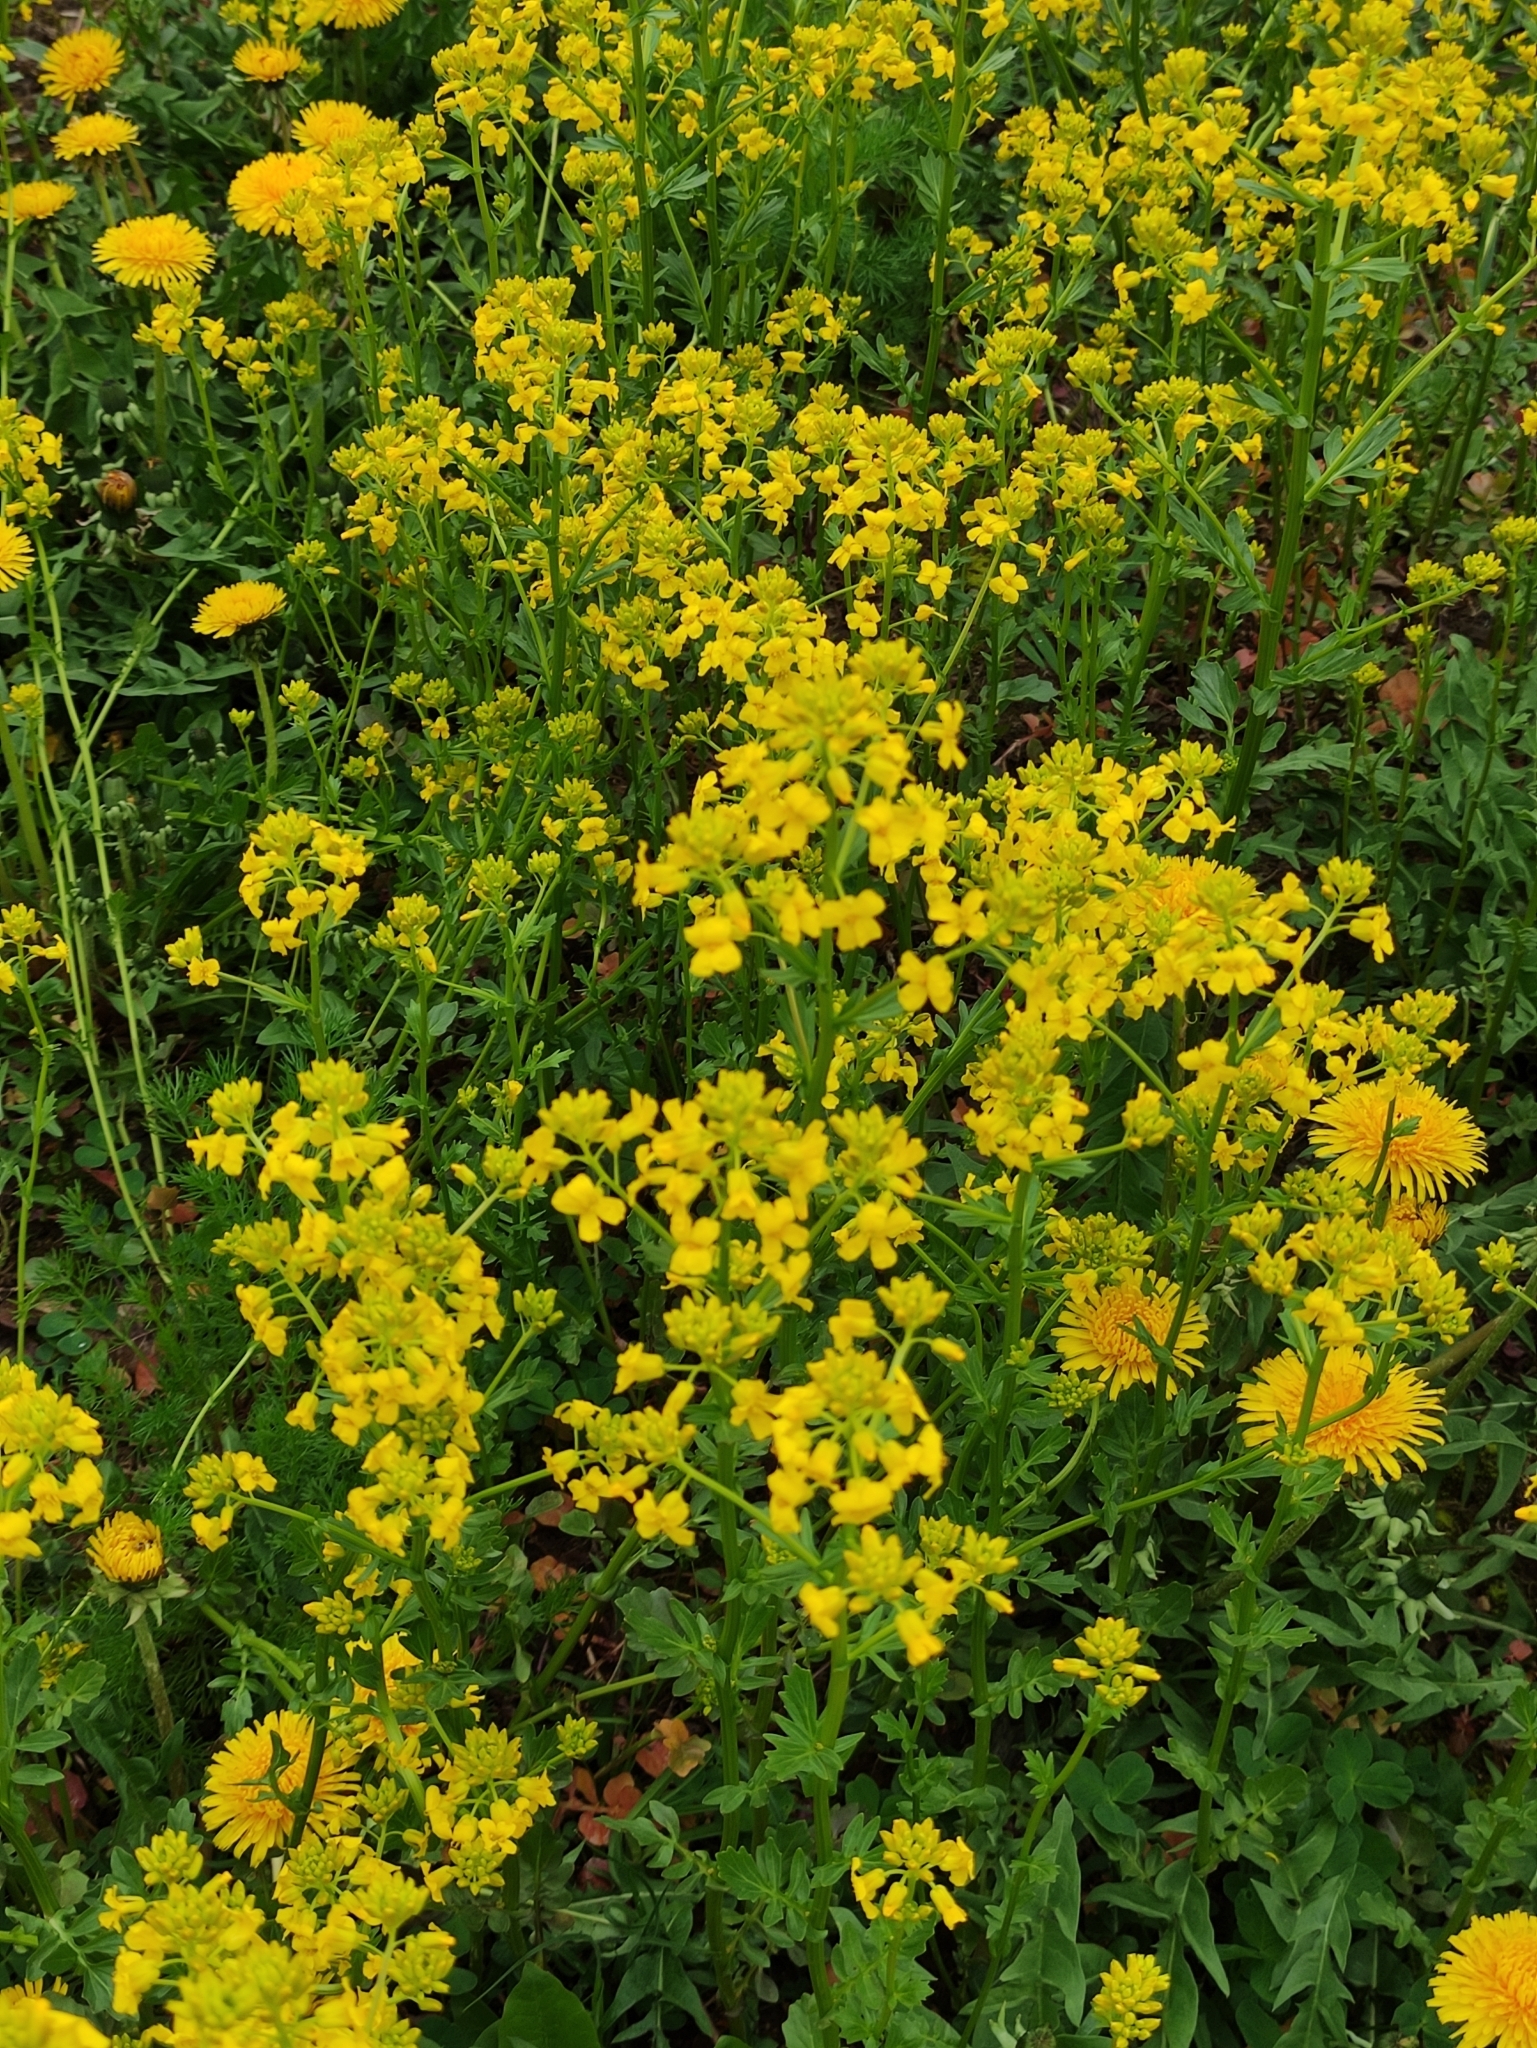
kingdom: Plantae
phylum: Tracheophyta
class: Magnoliopsida
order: Brassicales
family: Brassicaceae
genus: Barbarea
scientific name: Barbarea vulgaris
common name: Cressy-greens
